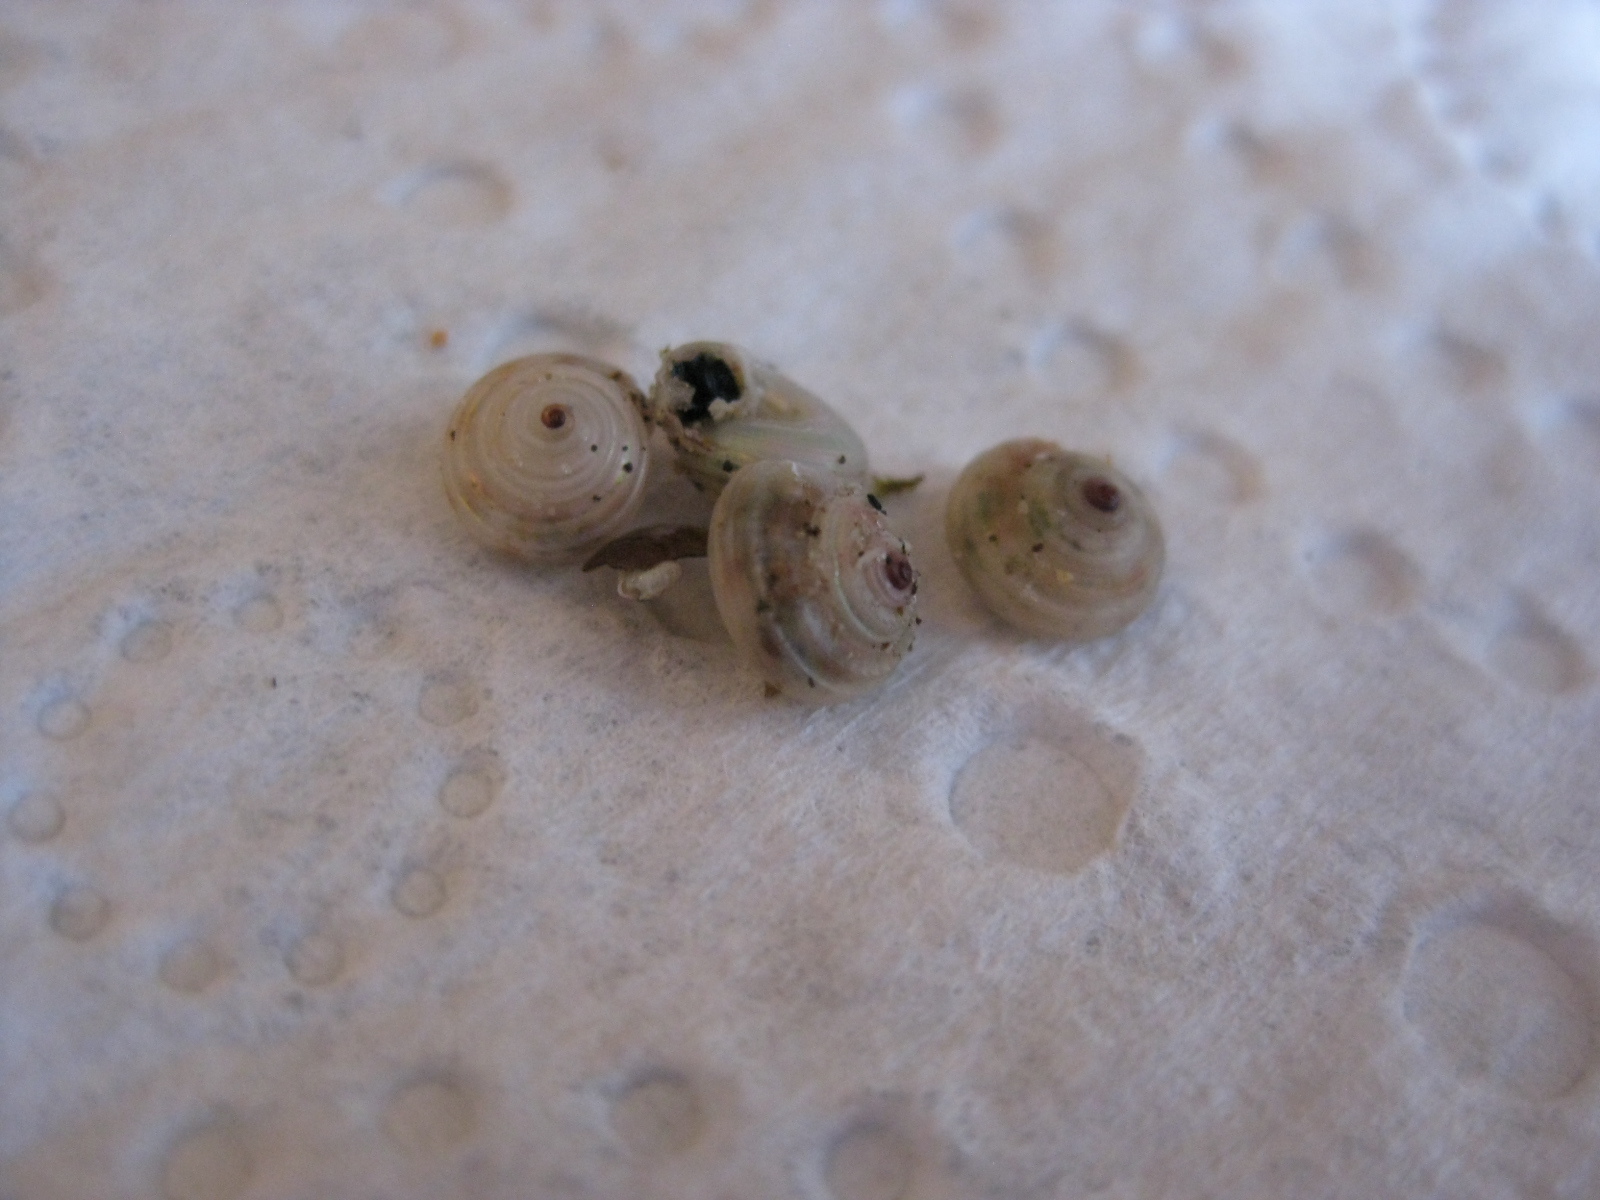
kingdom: Animalia
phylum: Mollusca
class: Gastropoda
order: Trochida
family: Trochidae
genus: Antisolarium
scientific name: Antisolarium egenum
